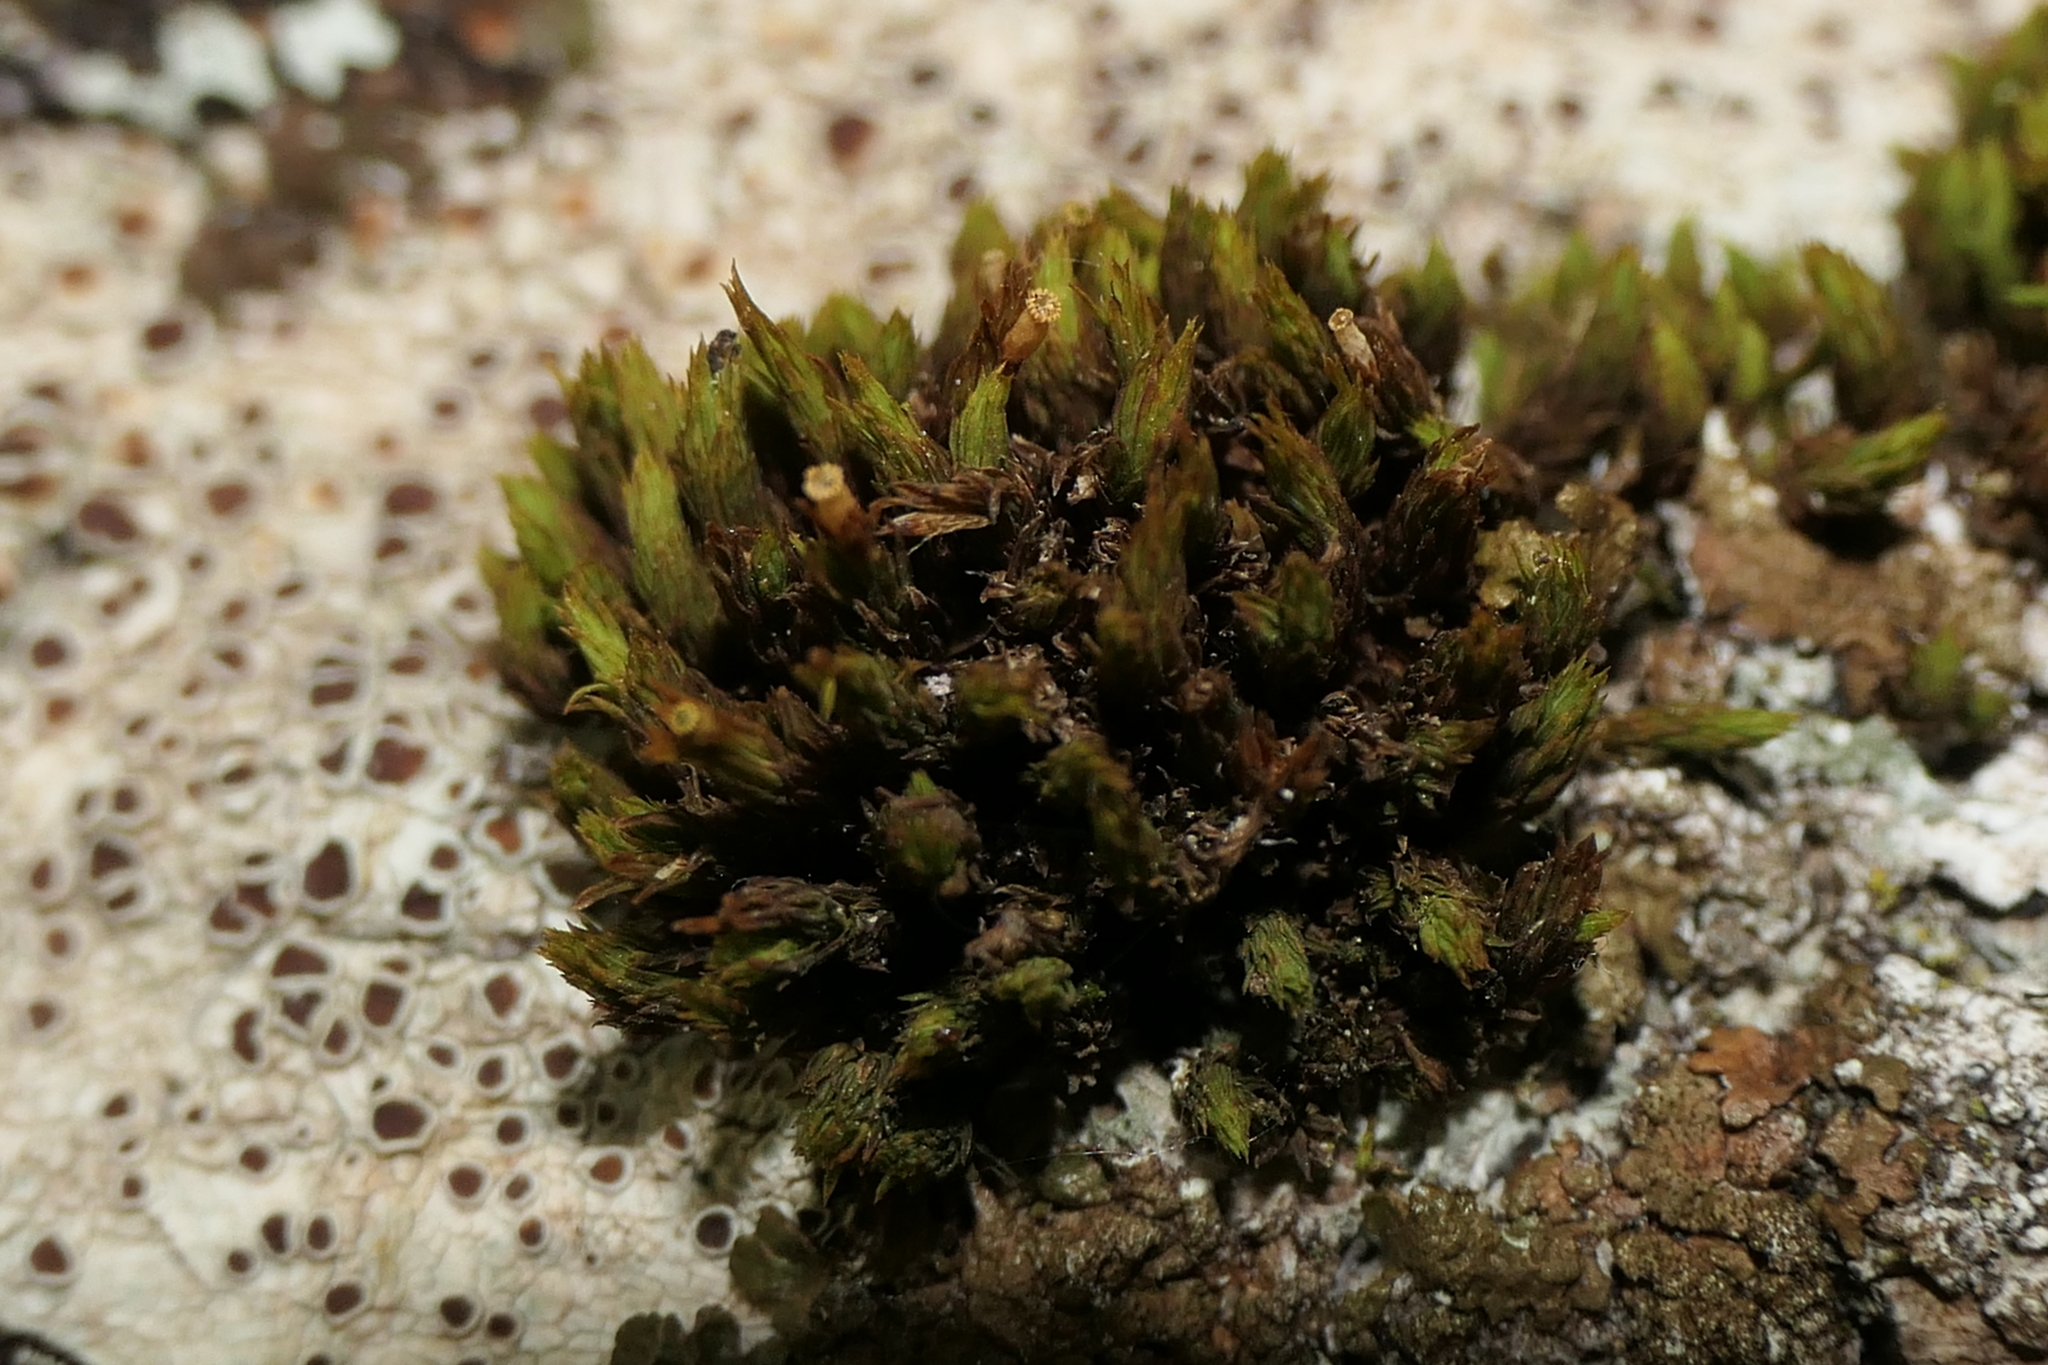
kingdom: Plantae
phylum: Bryophyta
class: Bryopsida
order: Orthotrichales
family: Orthotrichaceae
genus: Lewinskya
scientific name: Lewinskya striata
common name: Shaw's bristle-moss
